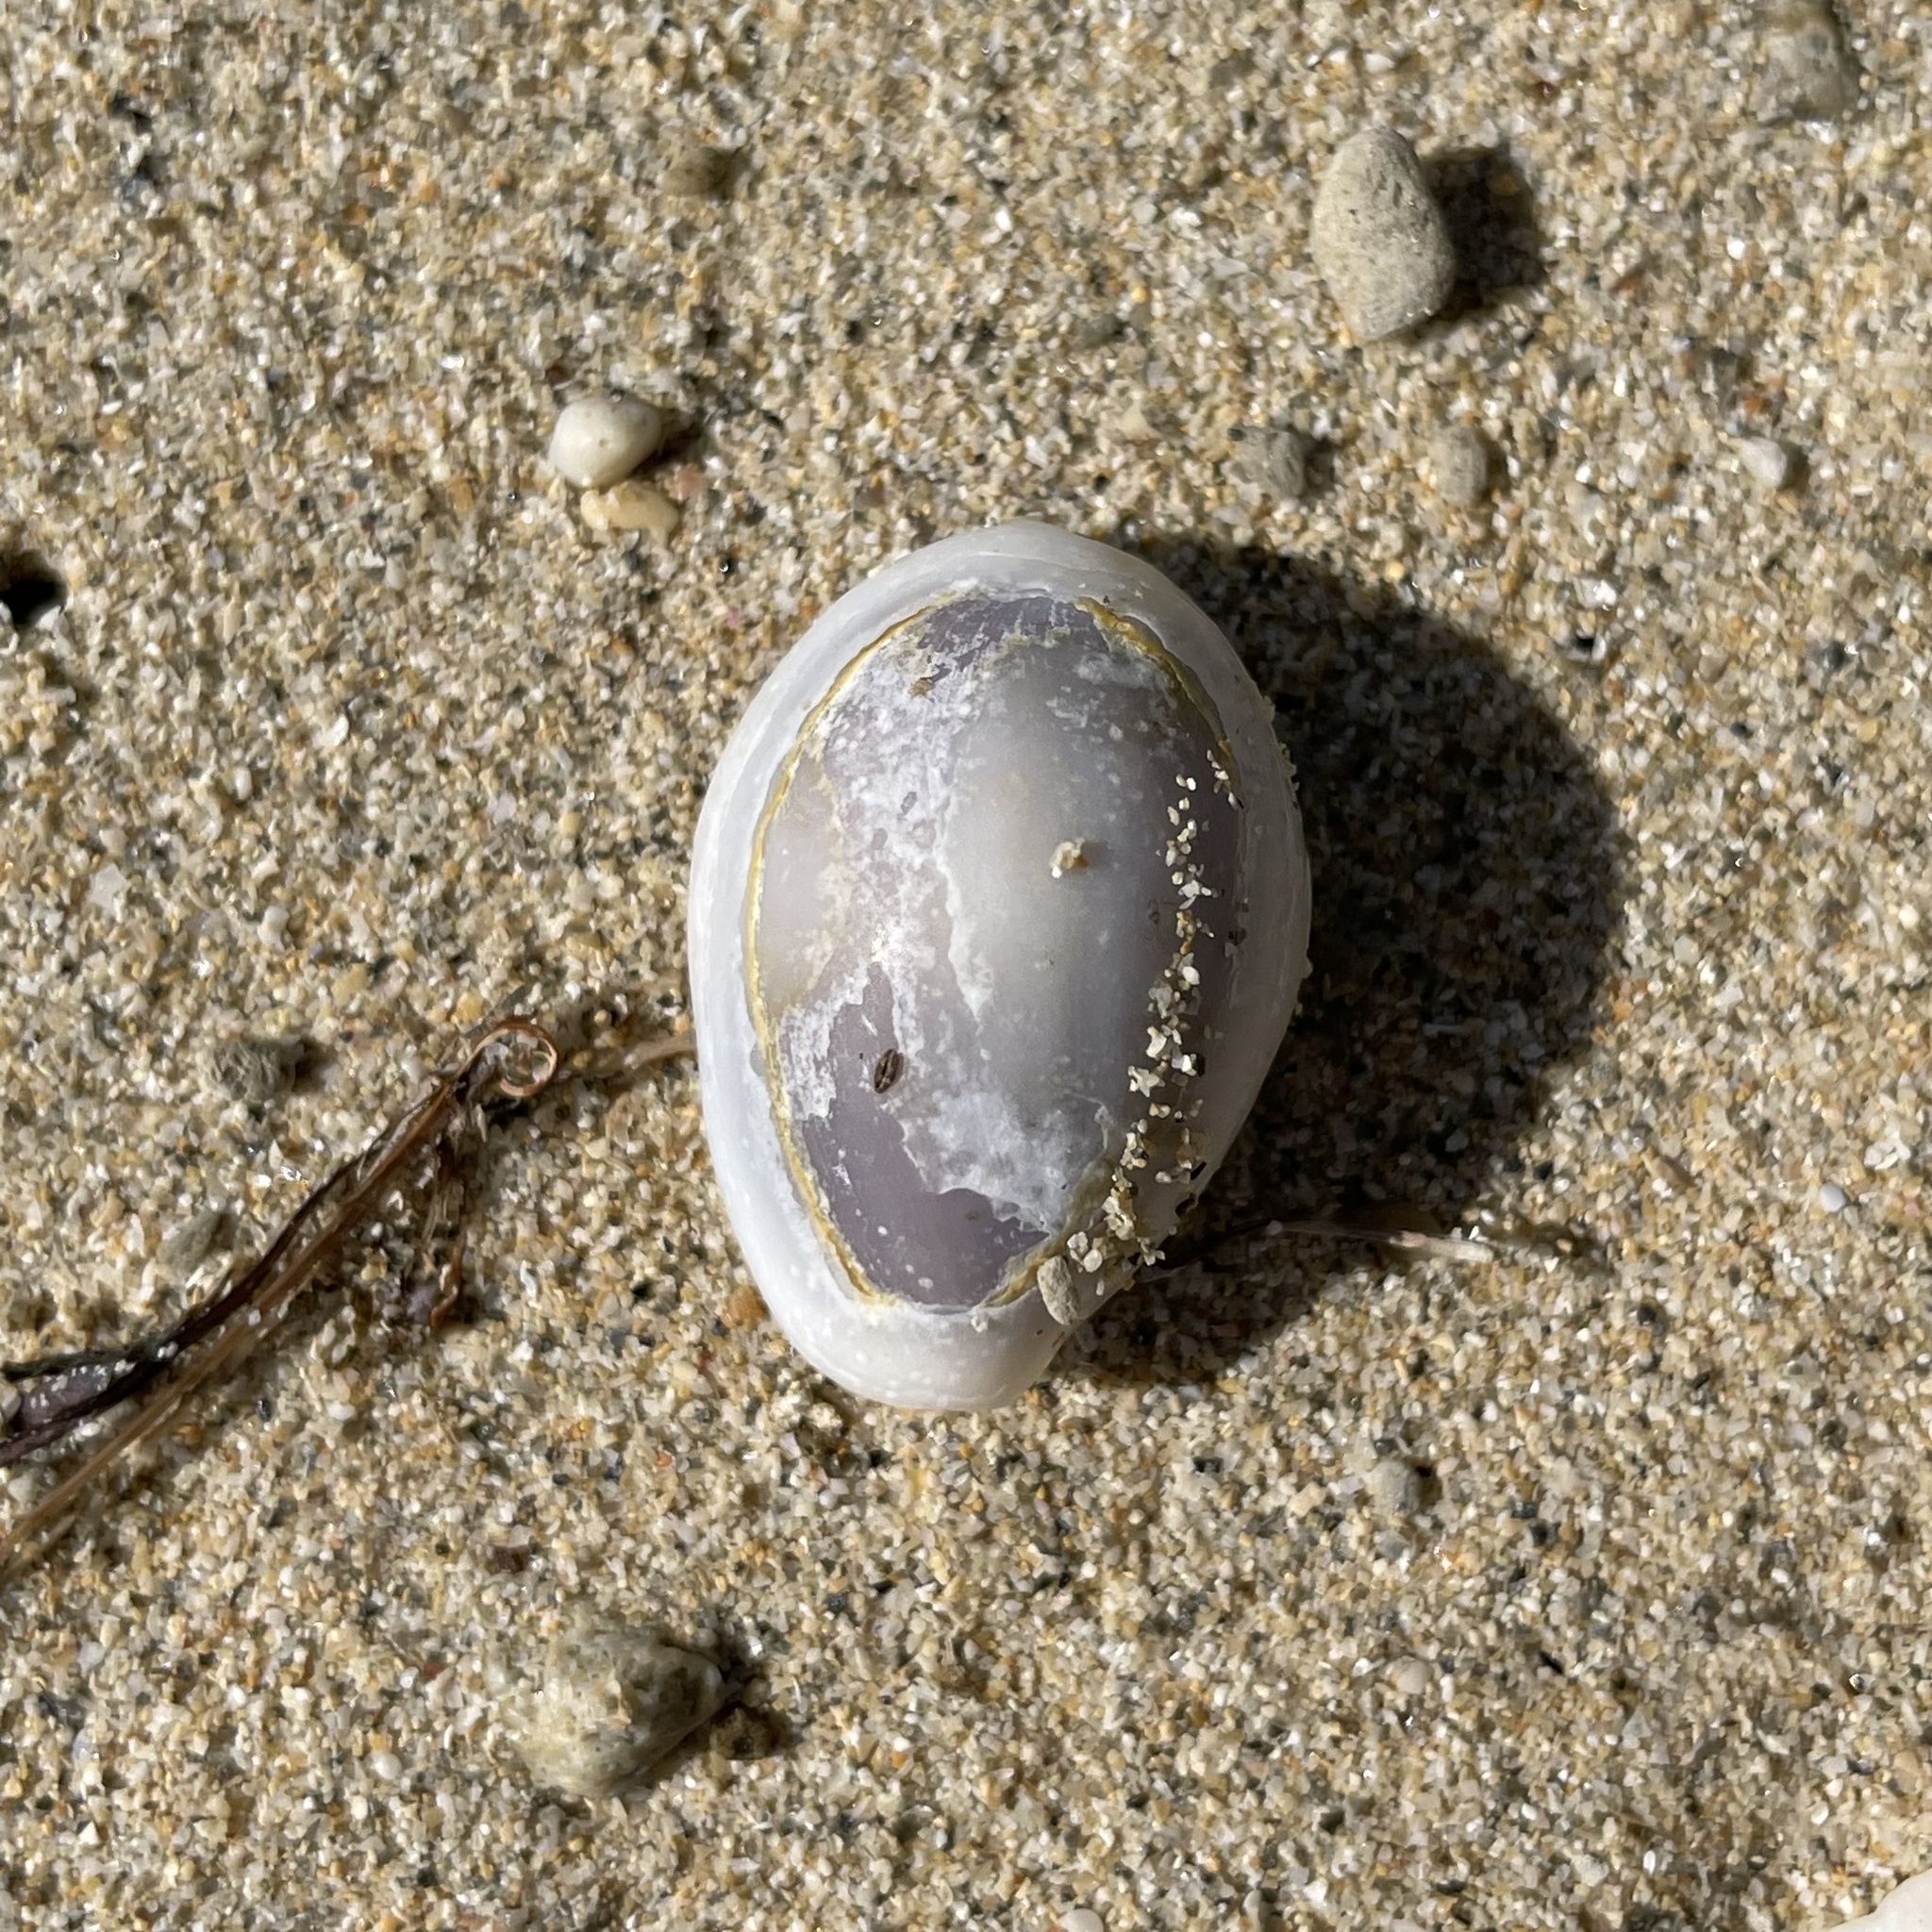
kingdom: Animalia
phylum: Mollusca
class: Gastropoda
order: Littorinimorpha
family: Cypraeidae
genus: Monetaria
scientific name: Monetaria annulus
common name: Ring cowrie
